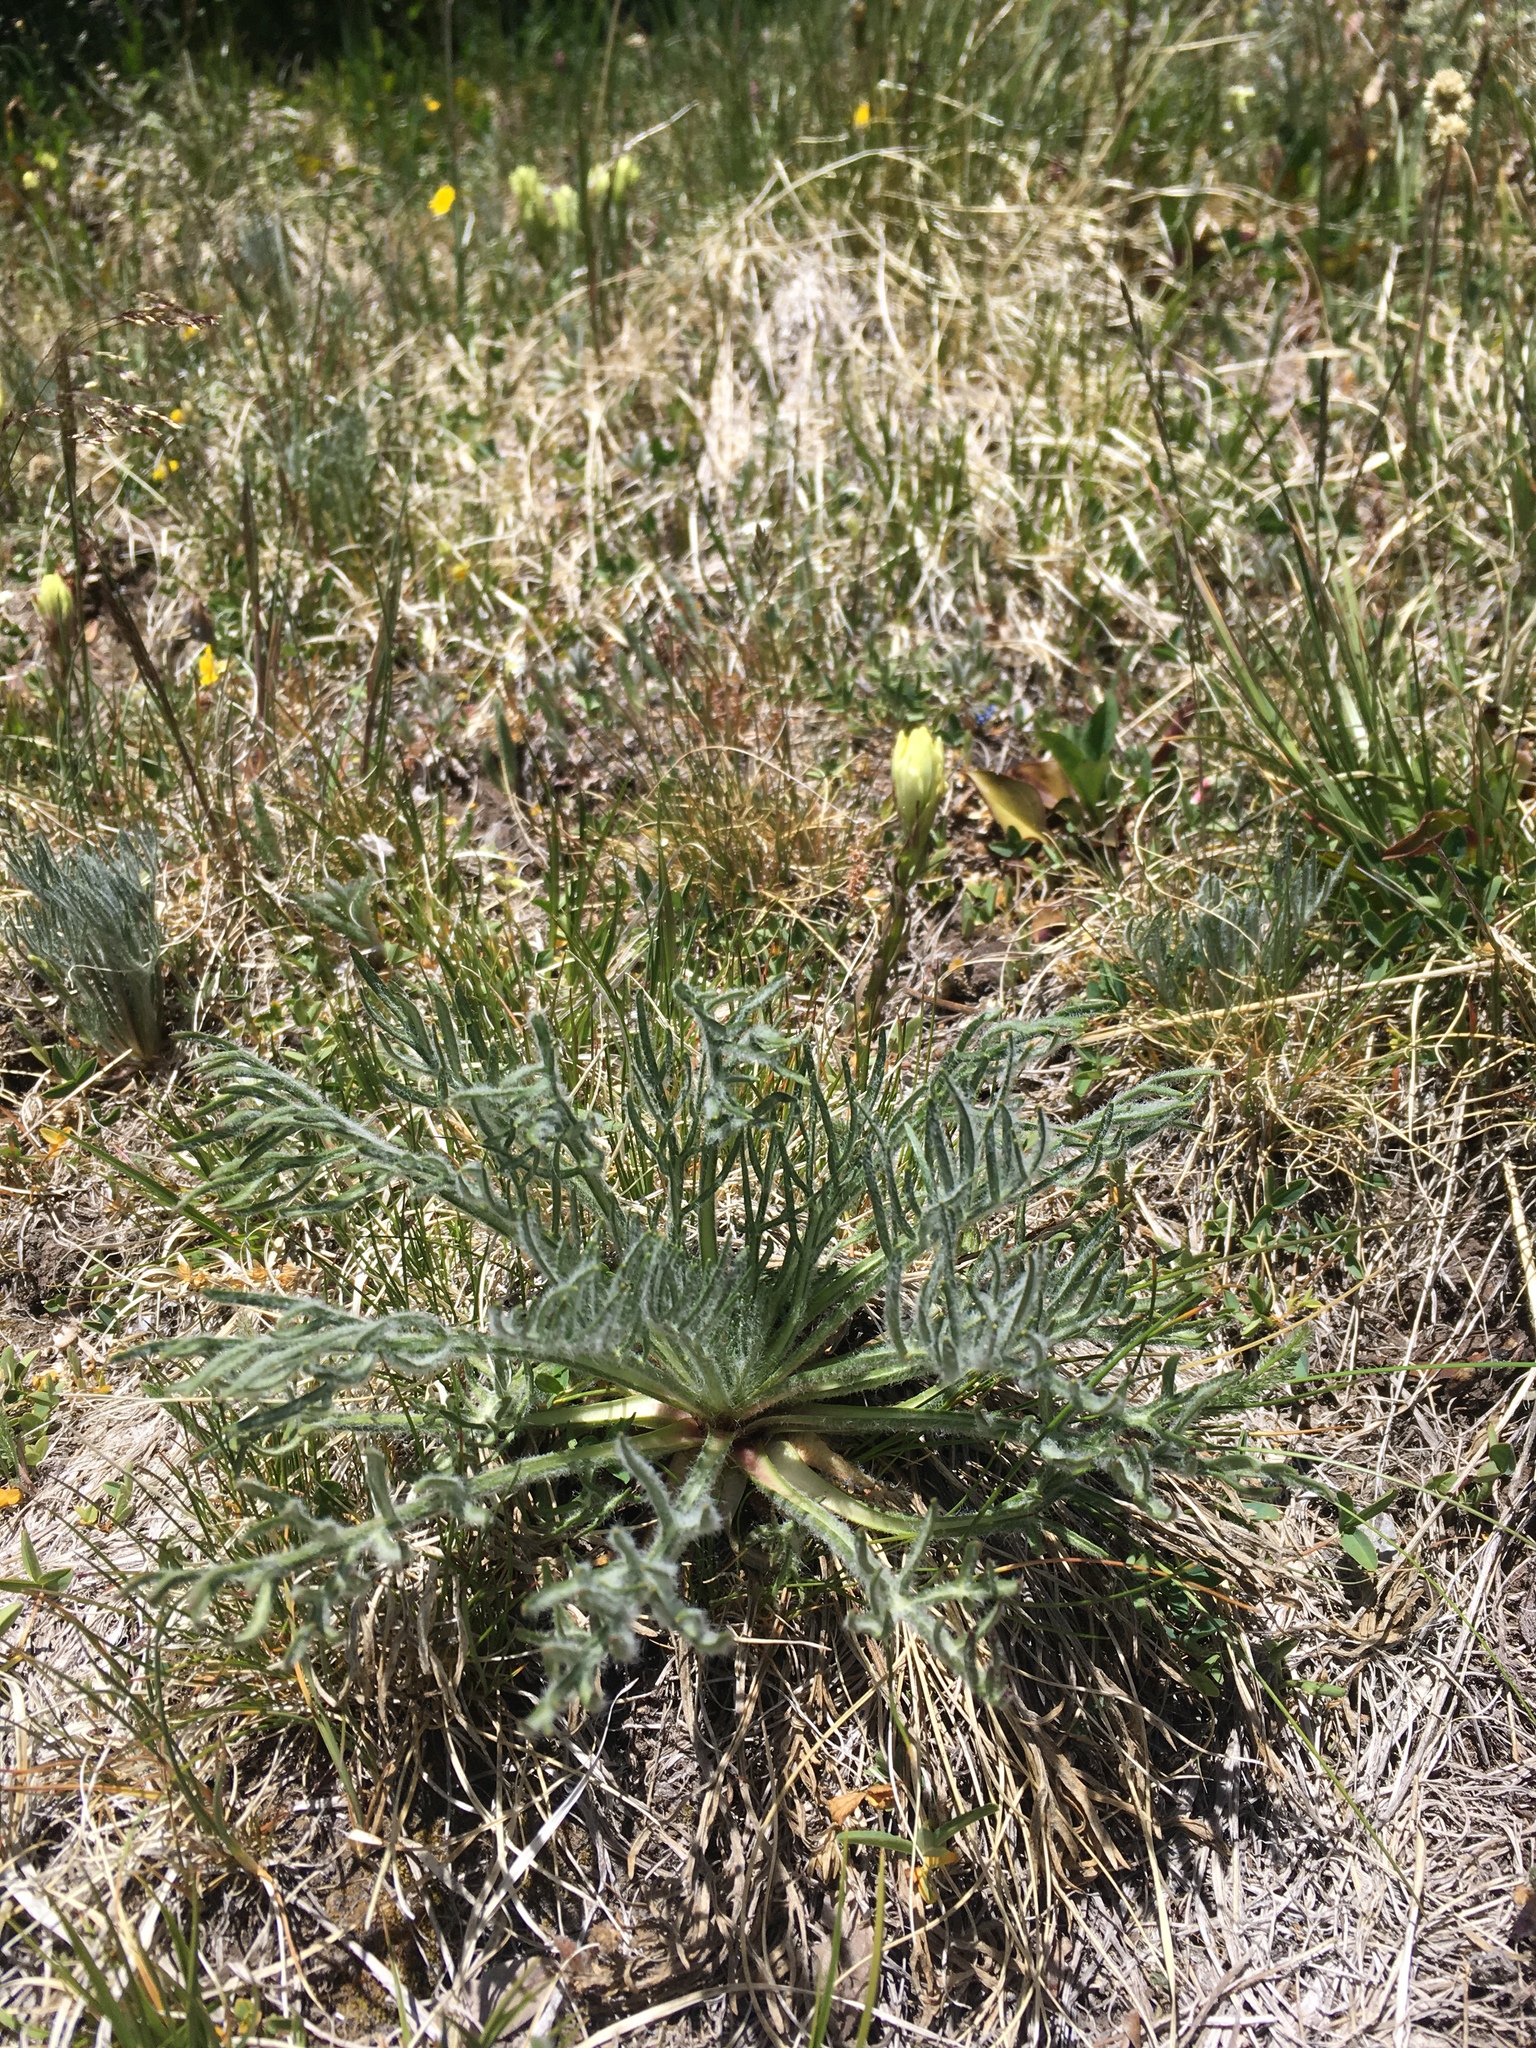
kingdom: Plantae
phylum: Tracheophyta
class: Magnoliopsida
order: Asterales
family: Asteraceae
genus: Hymenoxys
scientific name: Hymenoxys grandiflora
